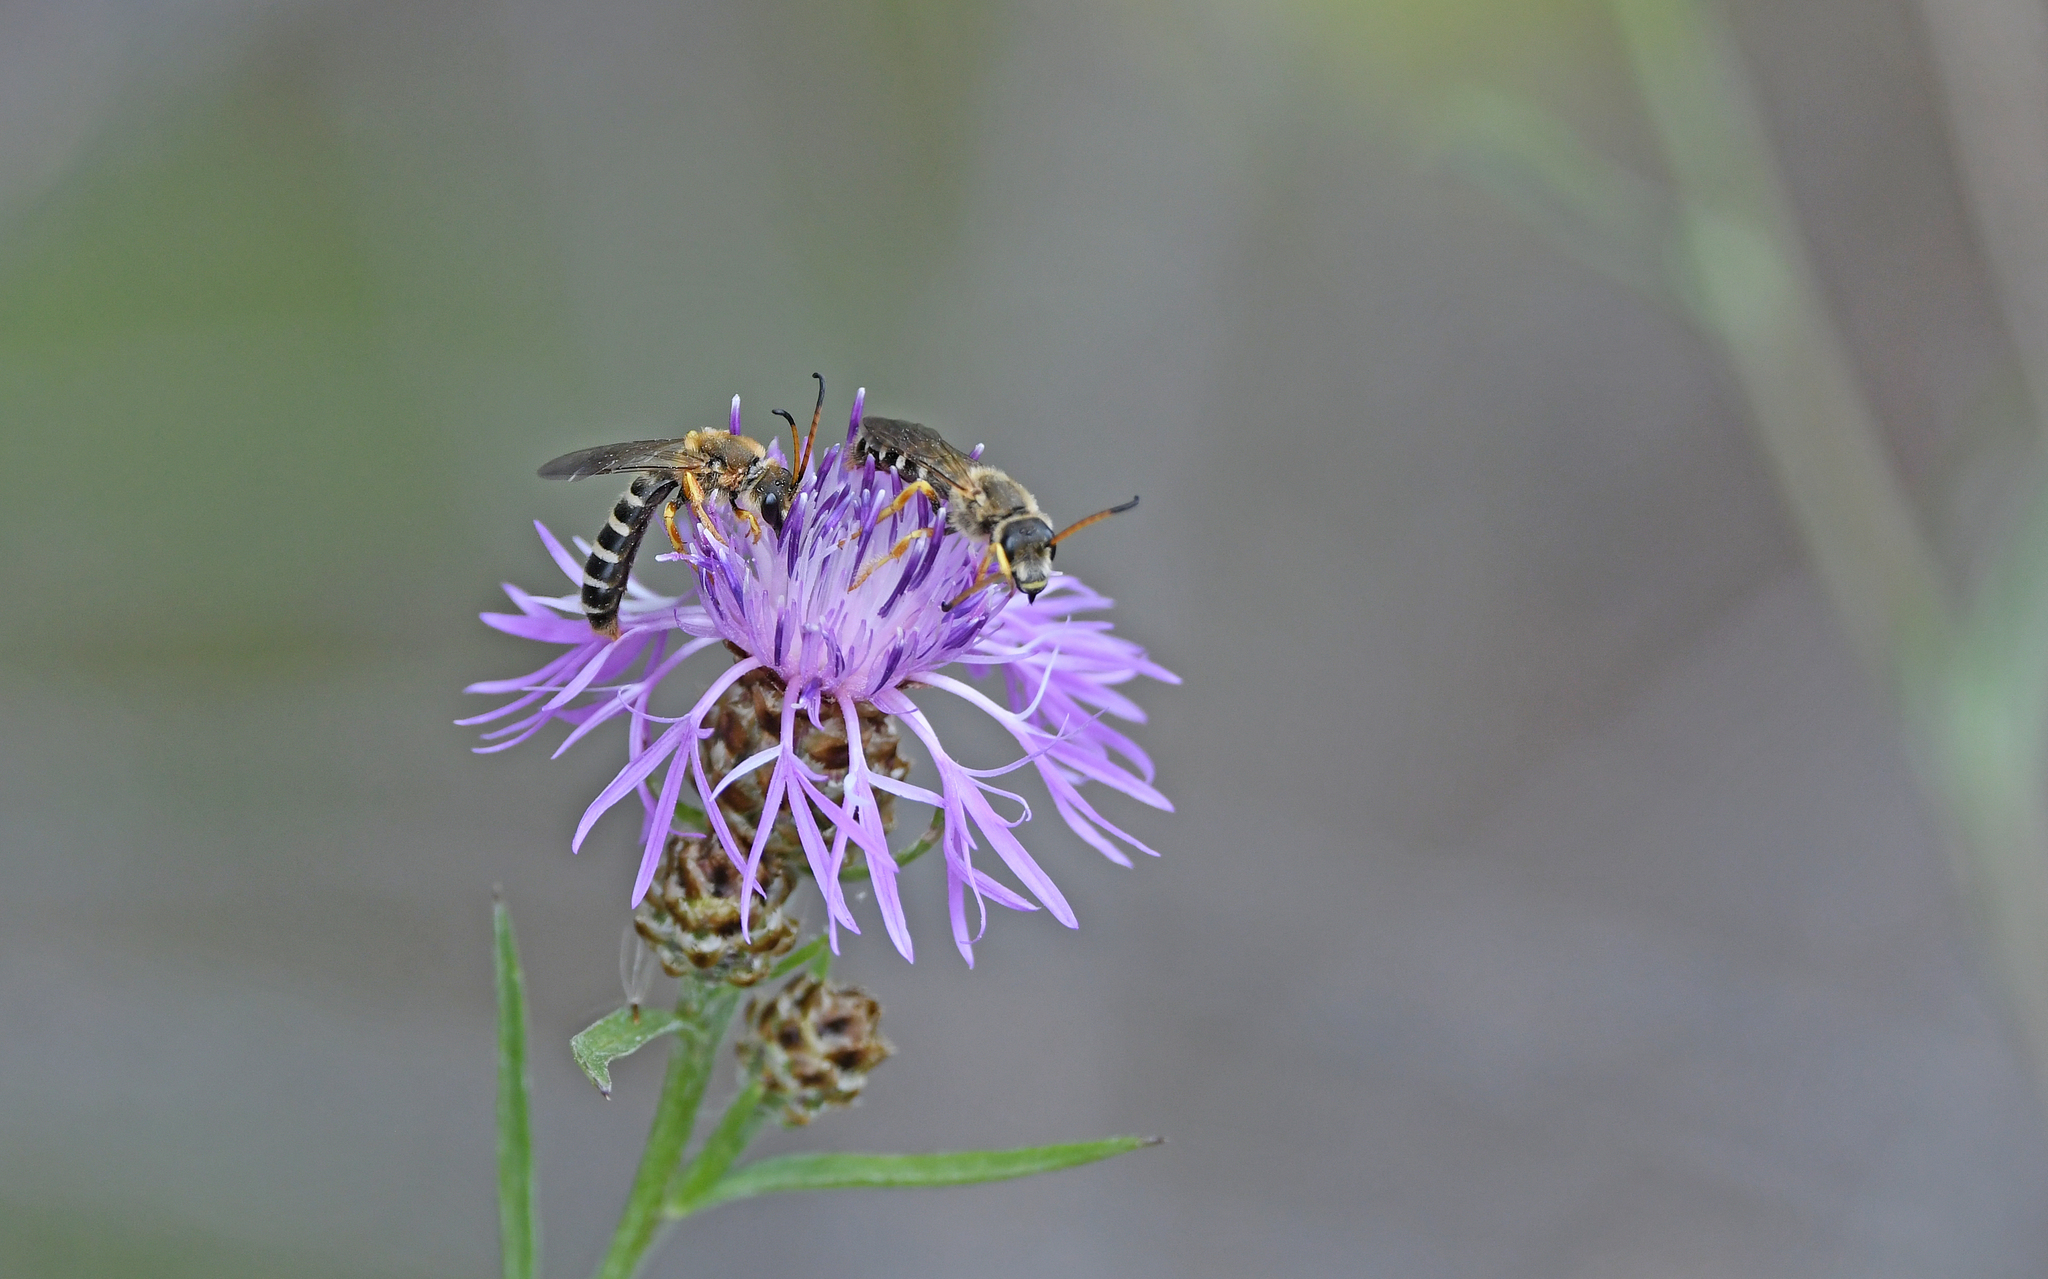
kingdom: Animalia
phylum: Arthropoda
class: Insecta
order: Hymenoptera
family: Halictidae
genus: Halictus
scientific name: Halictus sexcinctus
